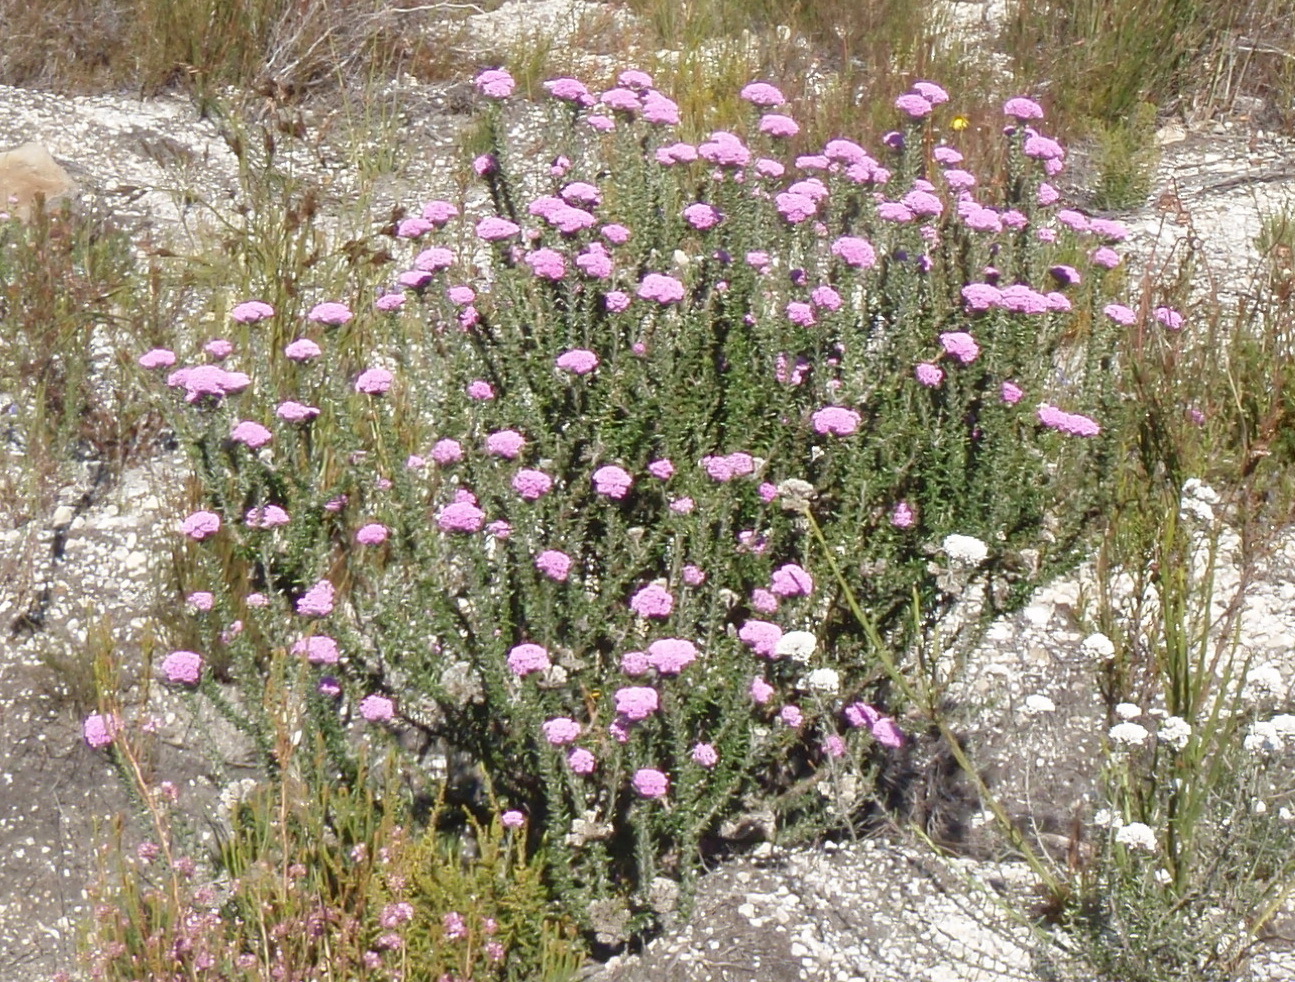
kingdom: Plantae
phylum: Tracheophyta
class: Magnoliopsida
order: Asterales
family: Asteraceae
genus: Metalasia
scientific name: Metalasia erubescens
